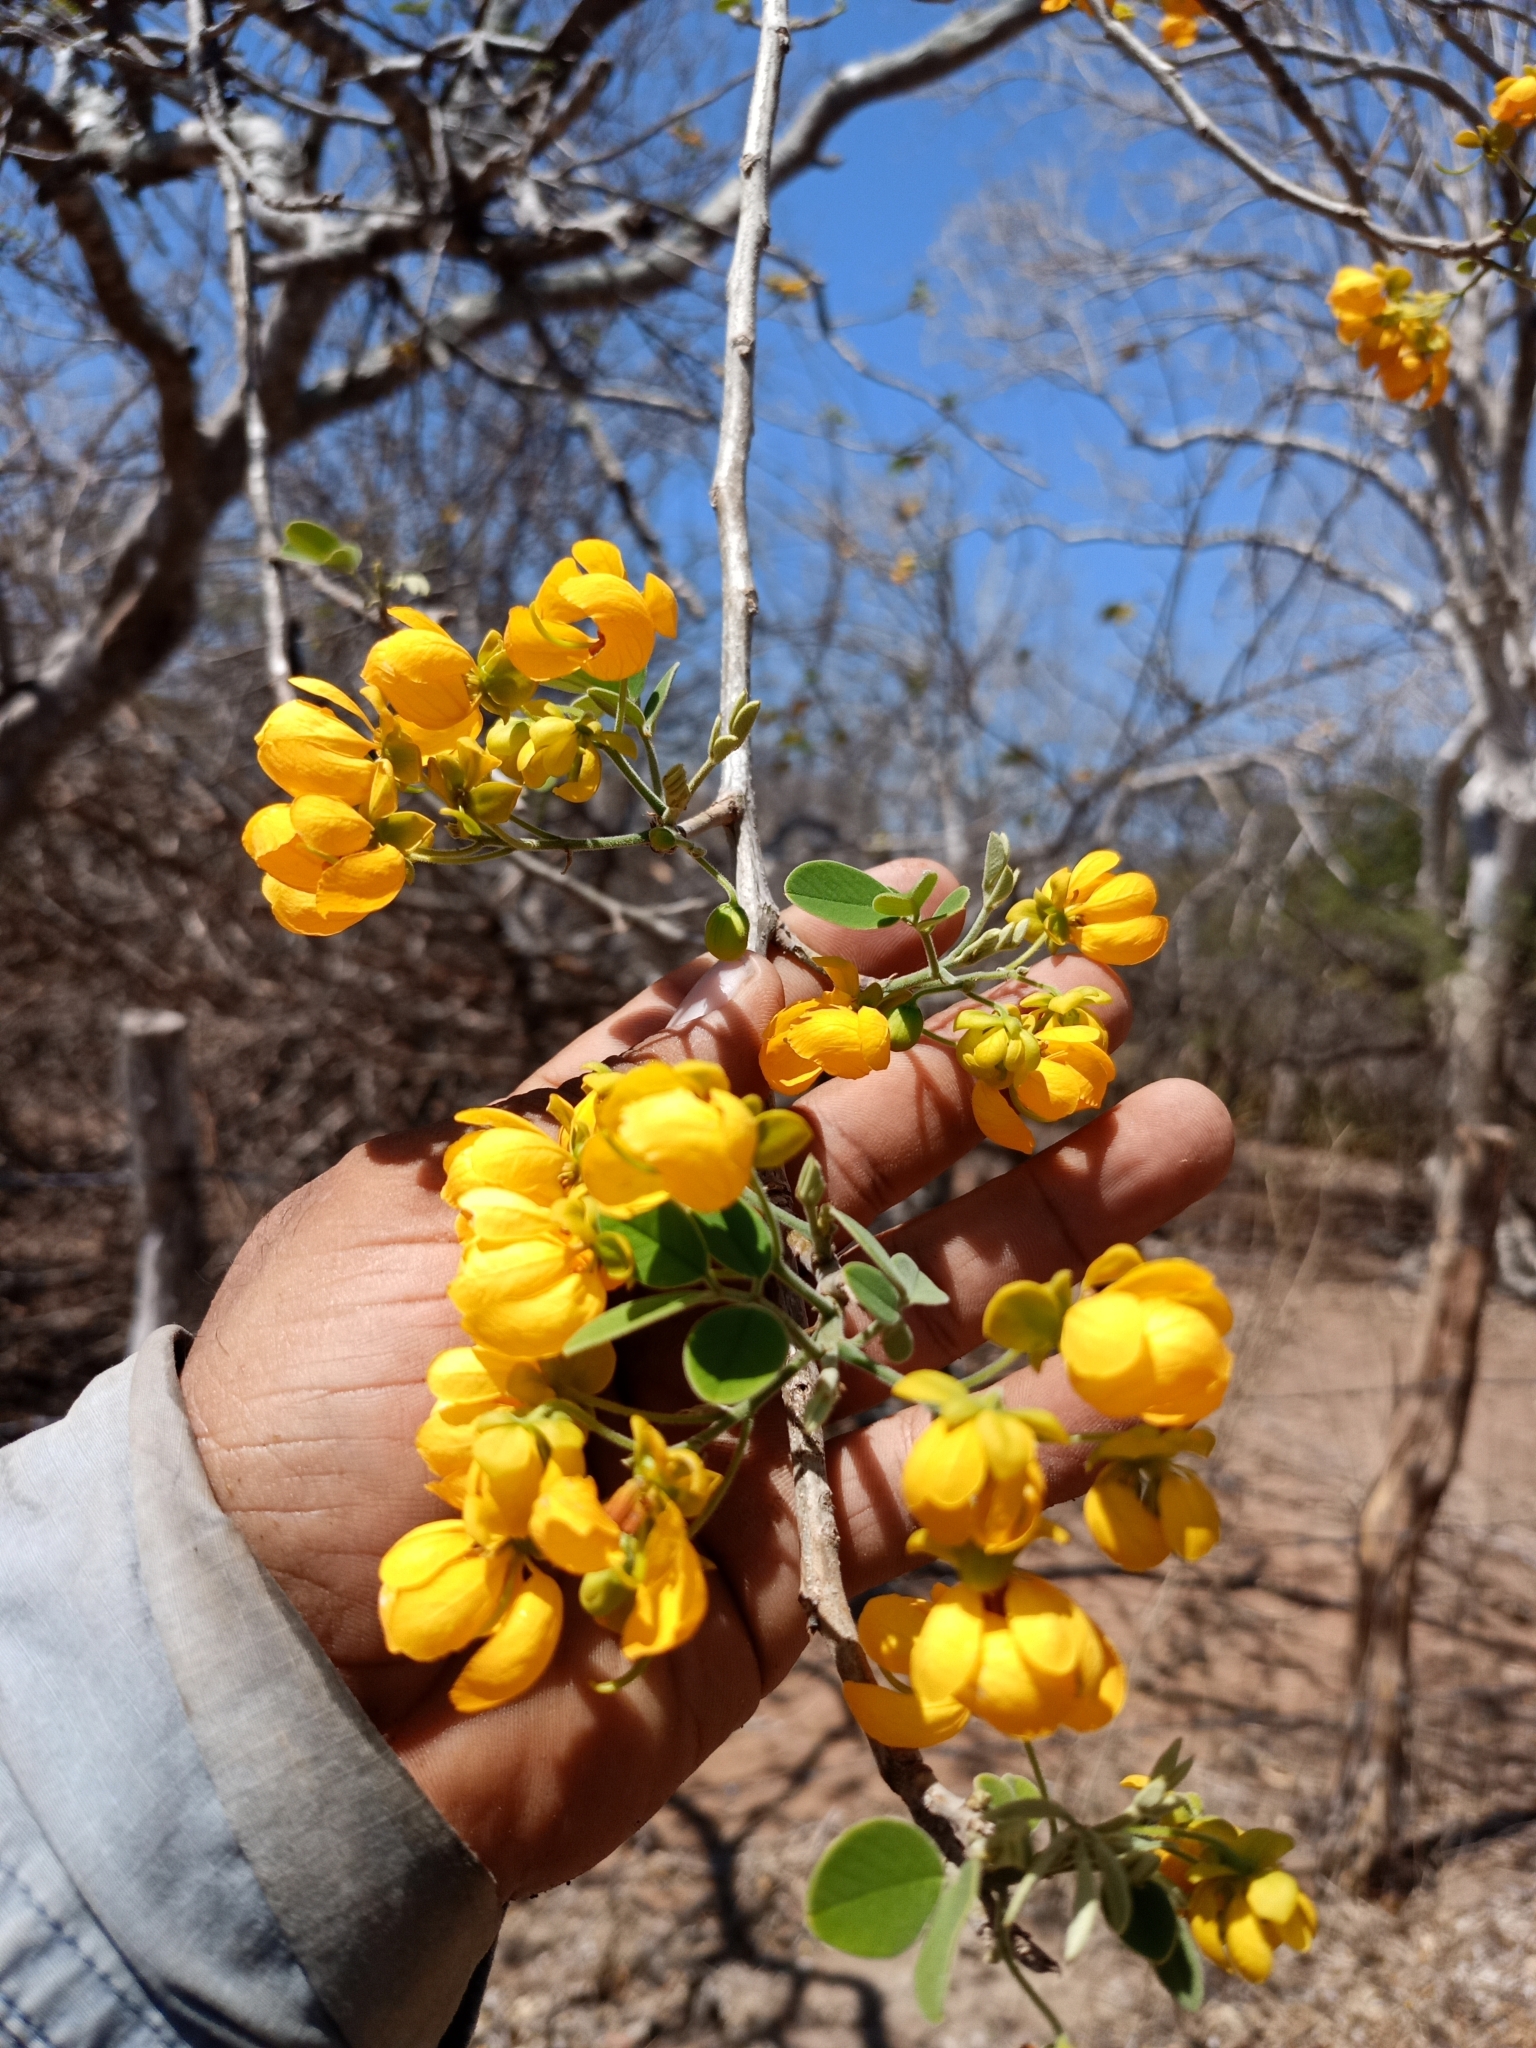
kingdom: Plantae
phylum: Tracheophyta
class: Magnoliopsida
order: Fabales
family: Fabaceae
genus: Senna
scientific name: Senna atomaria
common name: Flor de san jose
